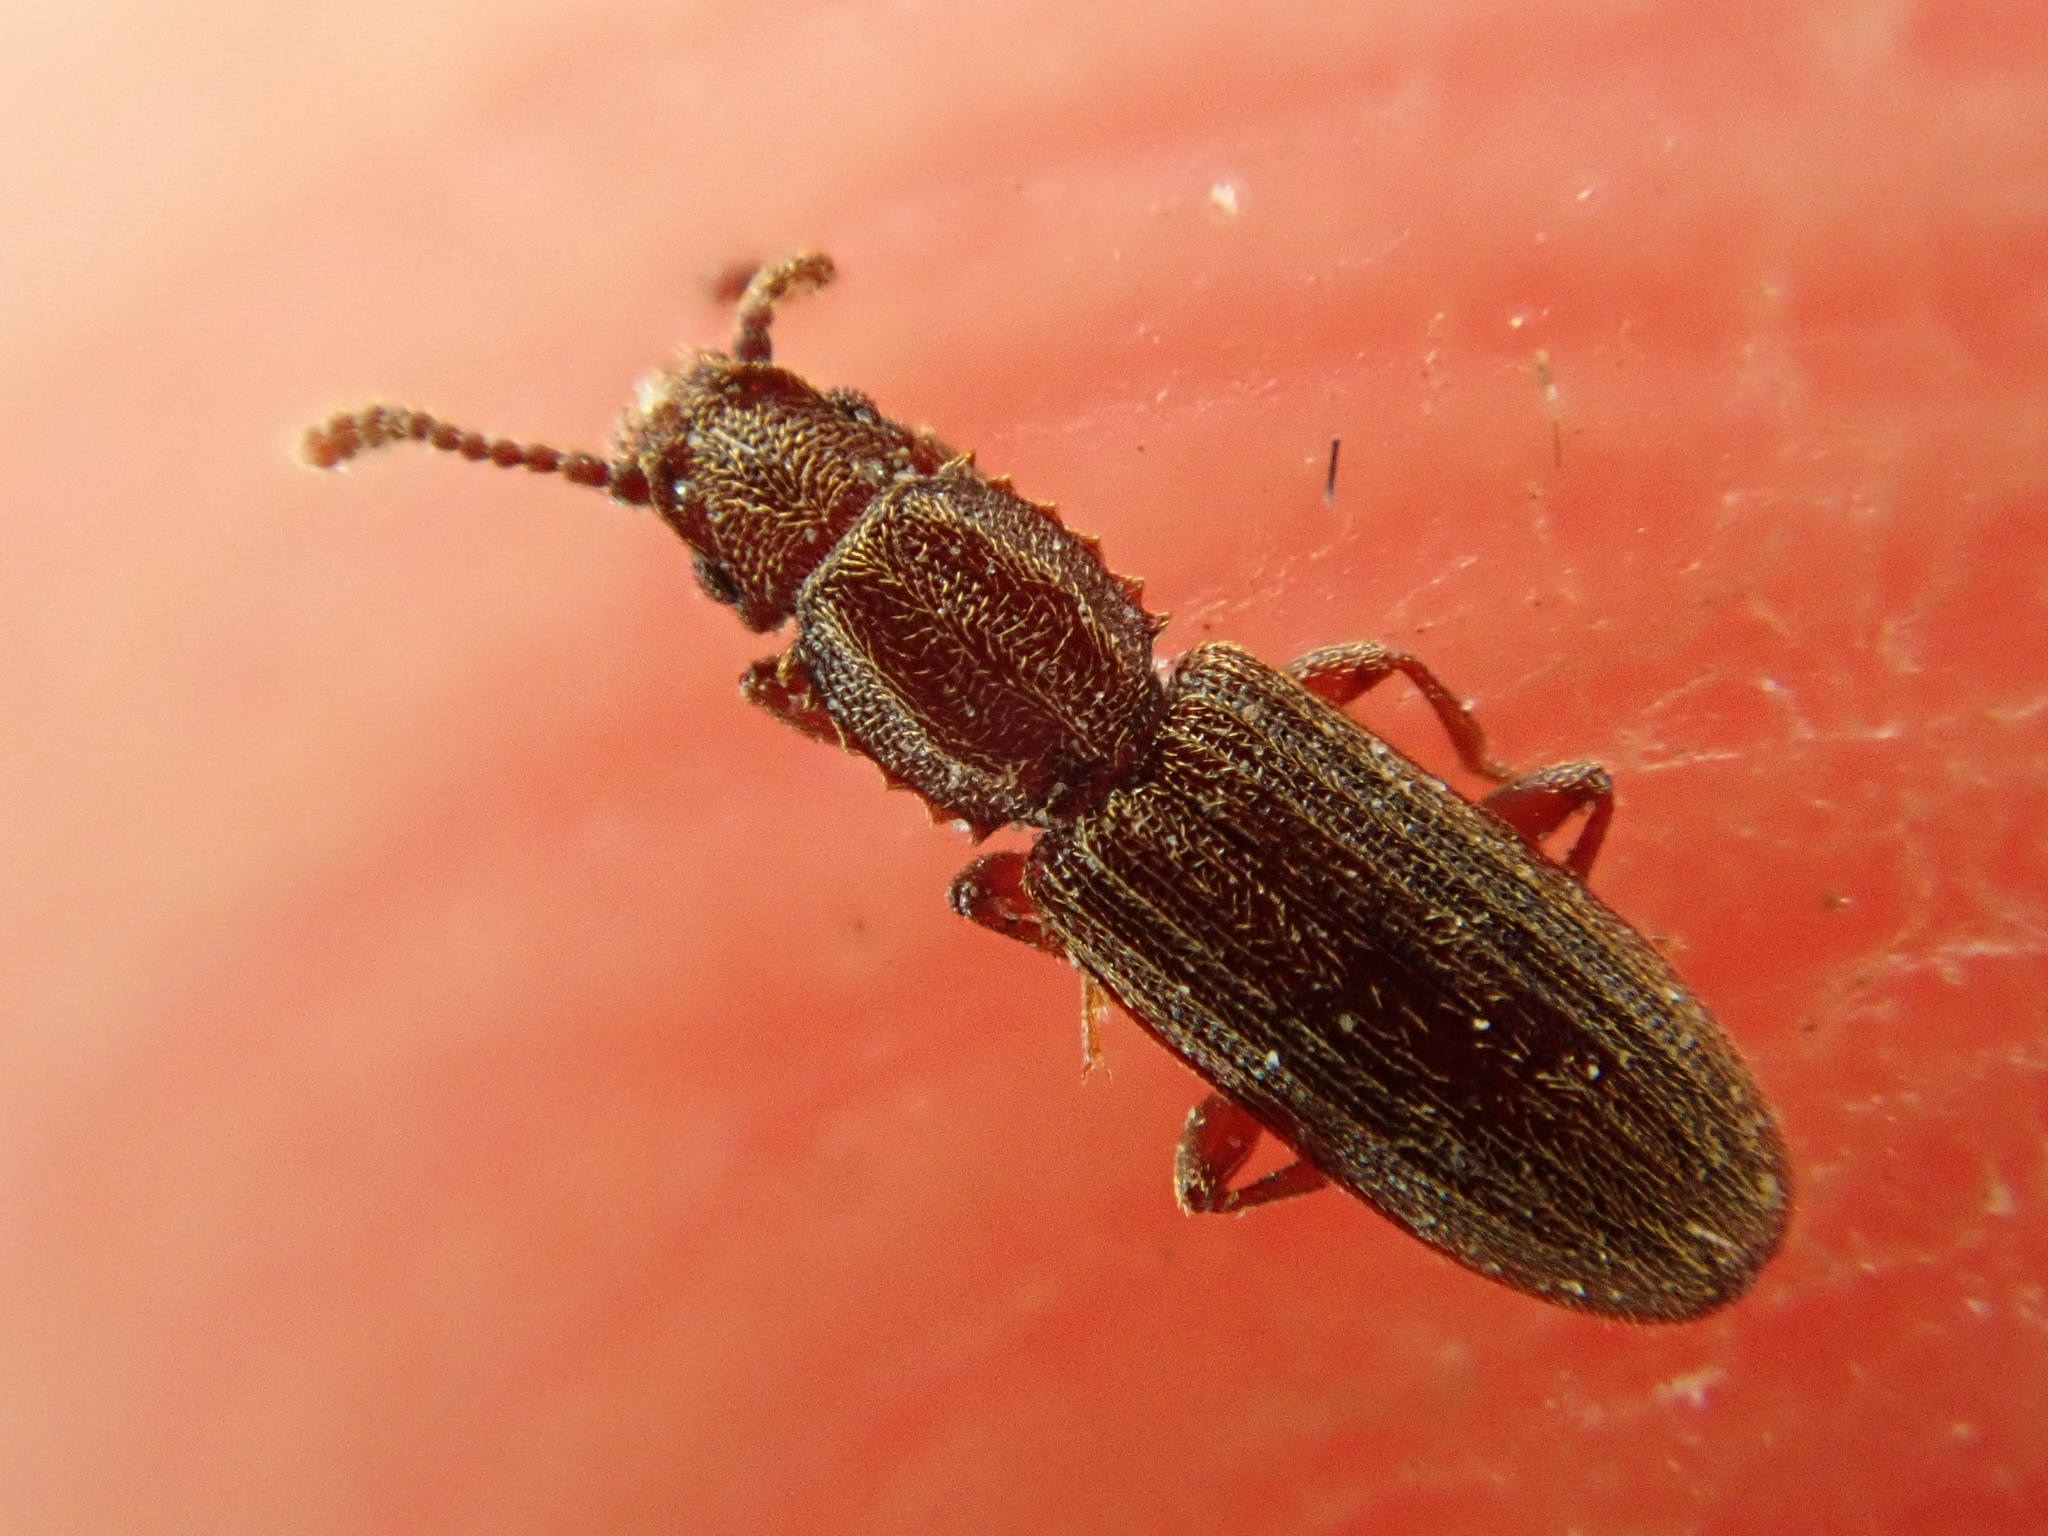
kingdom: Animalia
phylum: Arthropoda
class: Insecta
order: Coleoptera
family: Silvanidae
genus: Oryzaephilus
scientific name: Oryzaephilus surinamensis
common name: Sawtoothed grain beetle
